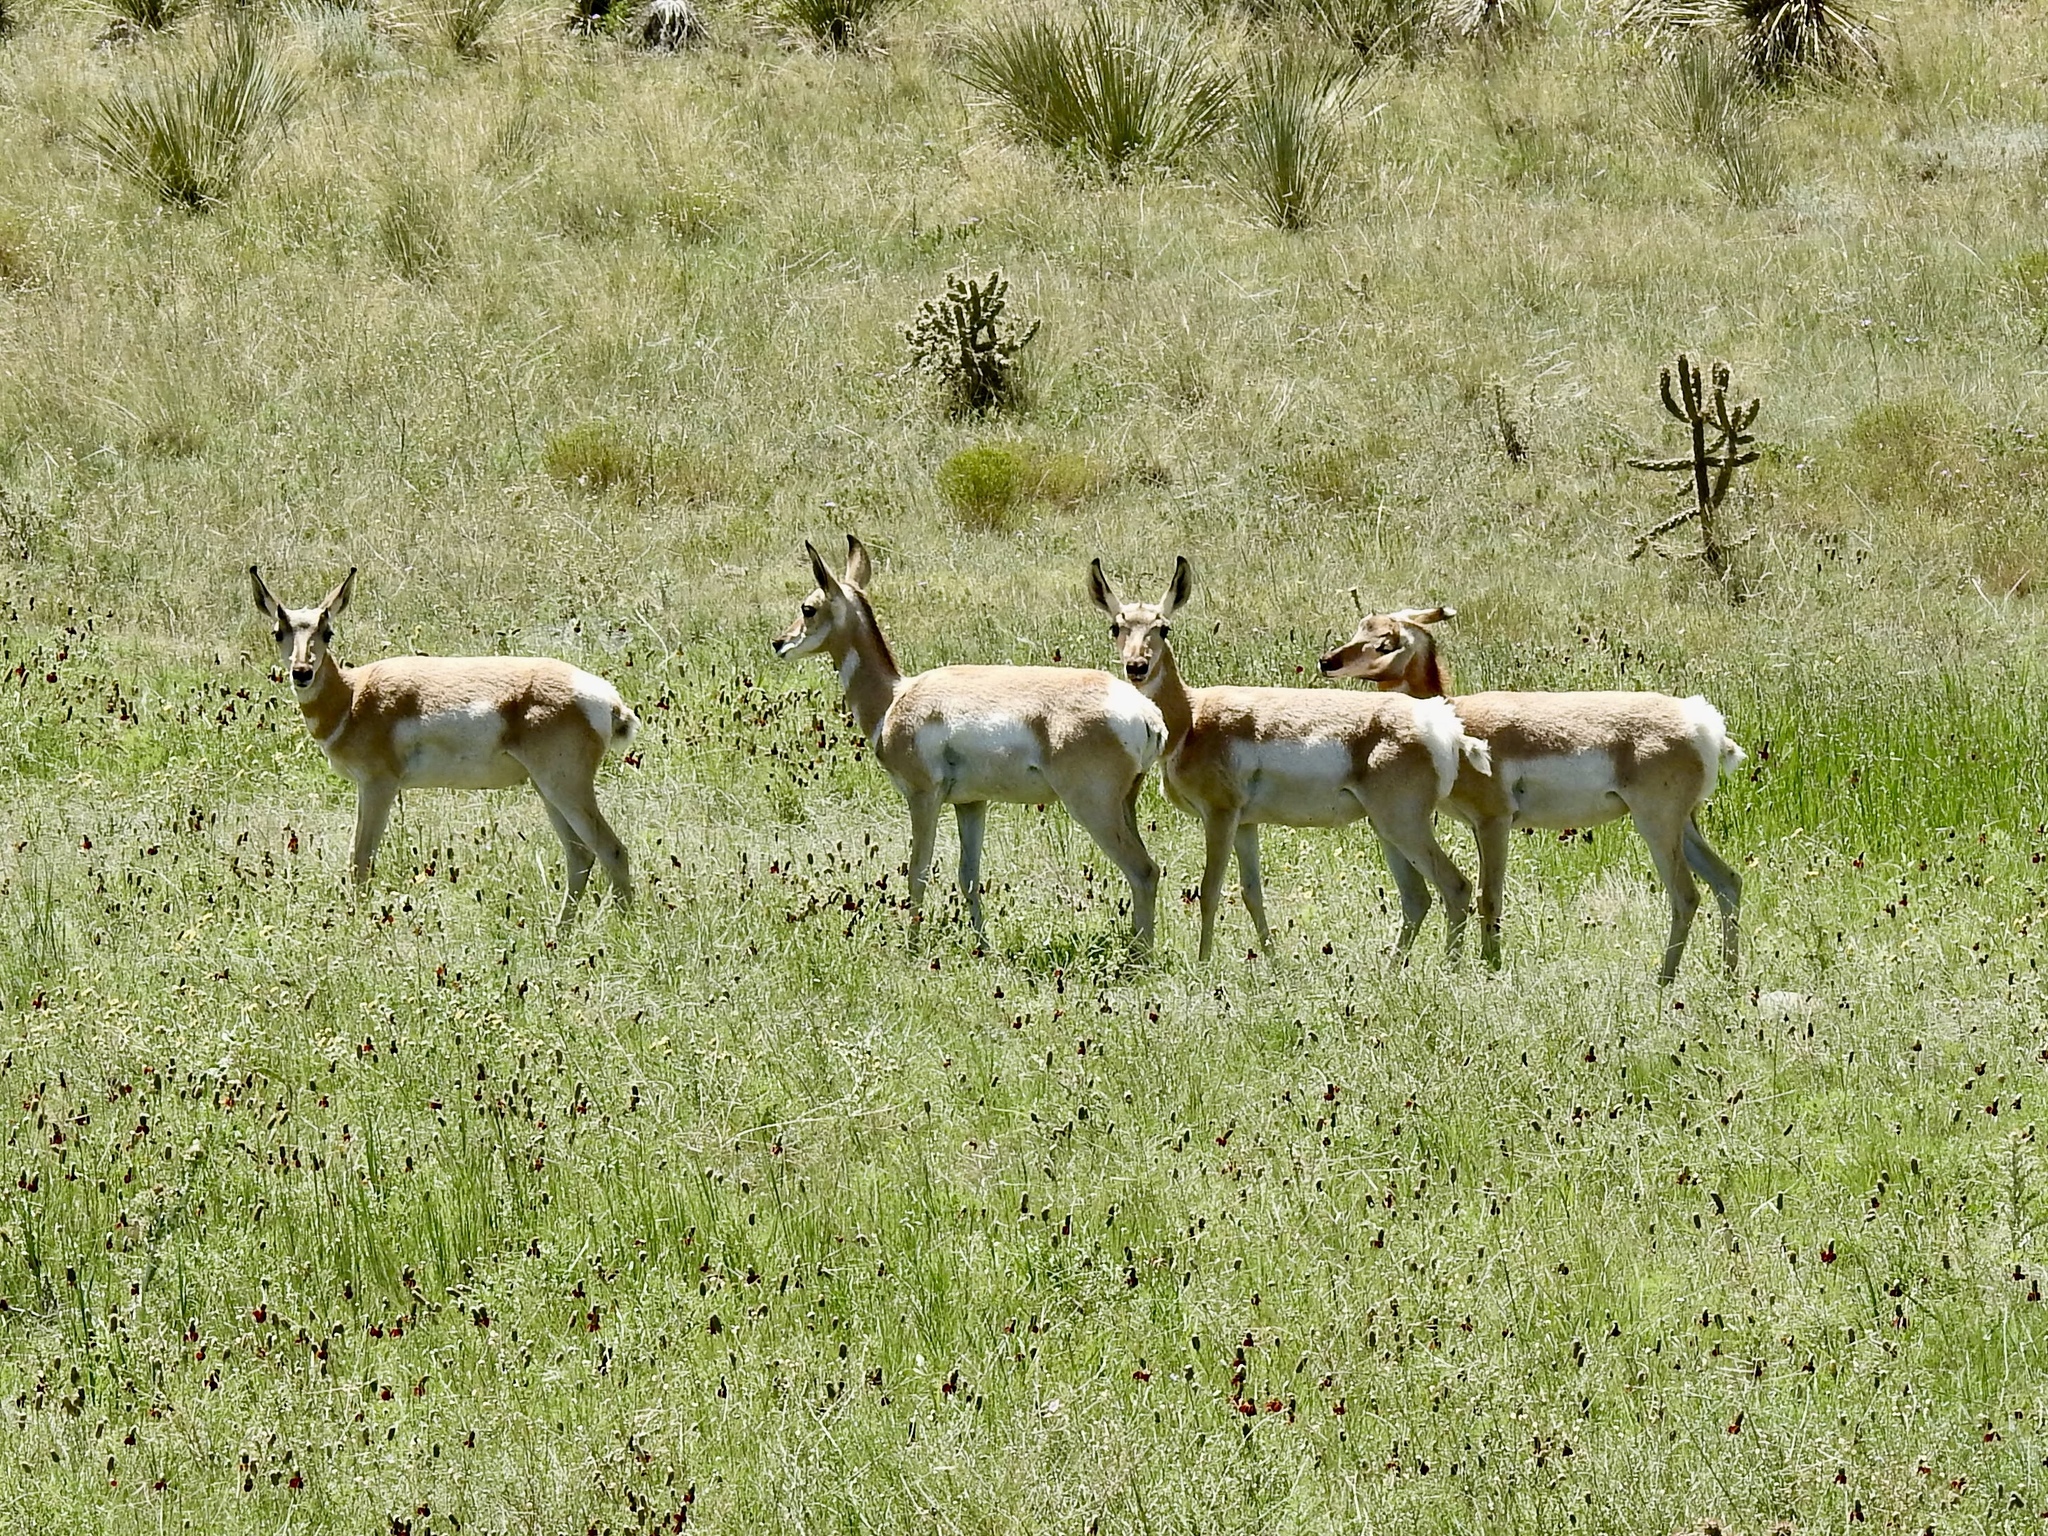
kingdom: Animalia
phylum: Chordata
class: Mammalia
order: Artiodactyla
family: Antilocapridae
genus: Antilocapra
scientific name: Antilocapra americana
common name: Pronghorn
